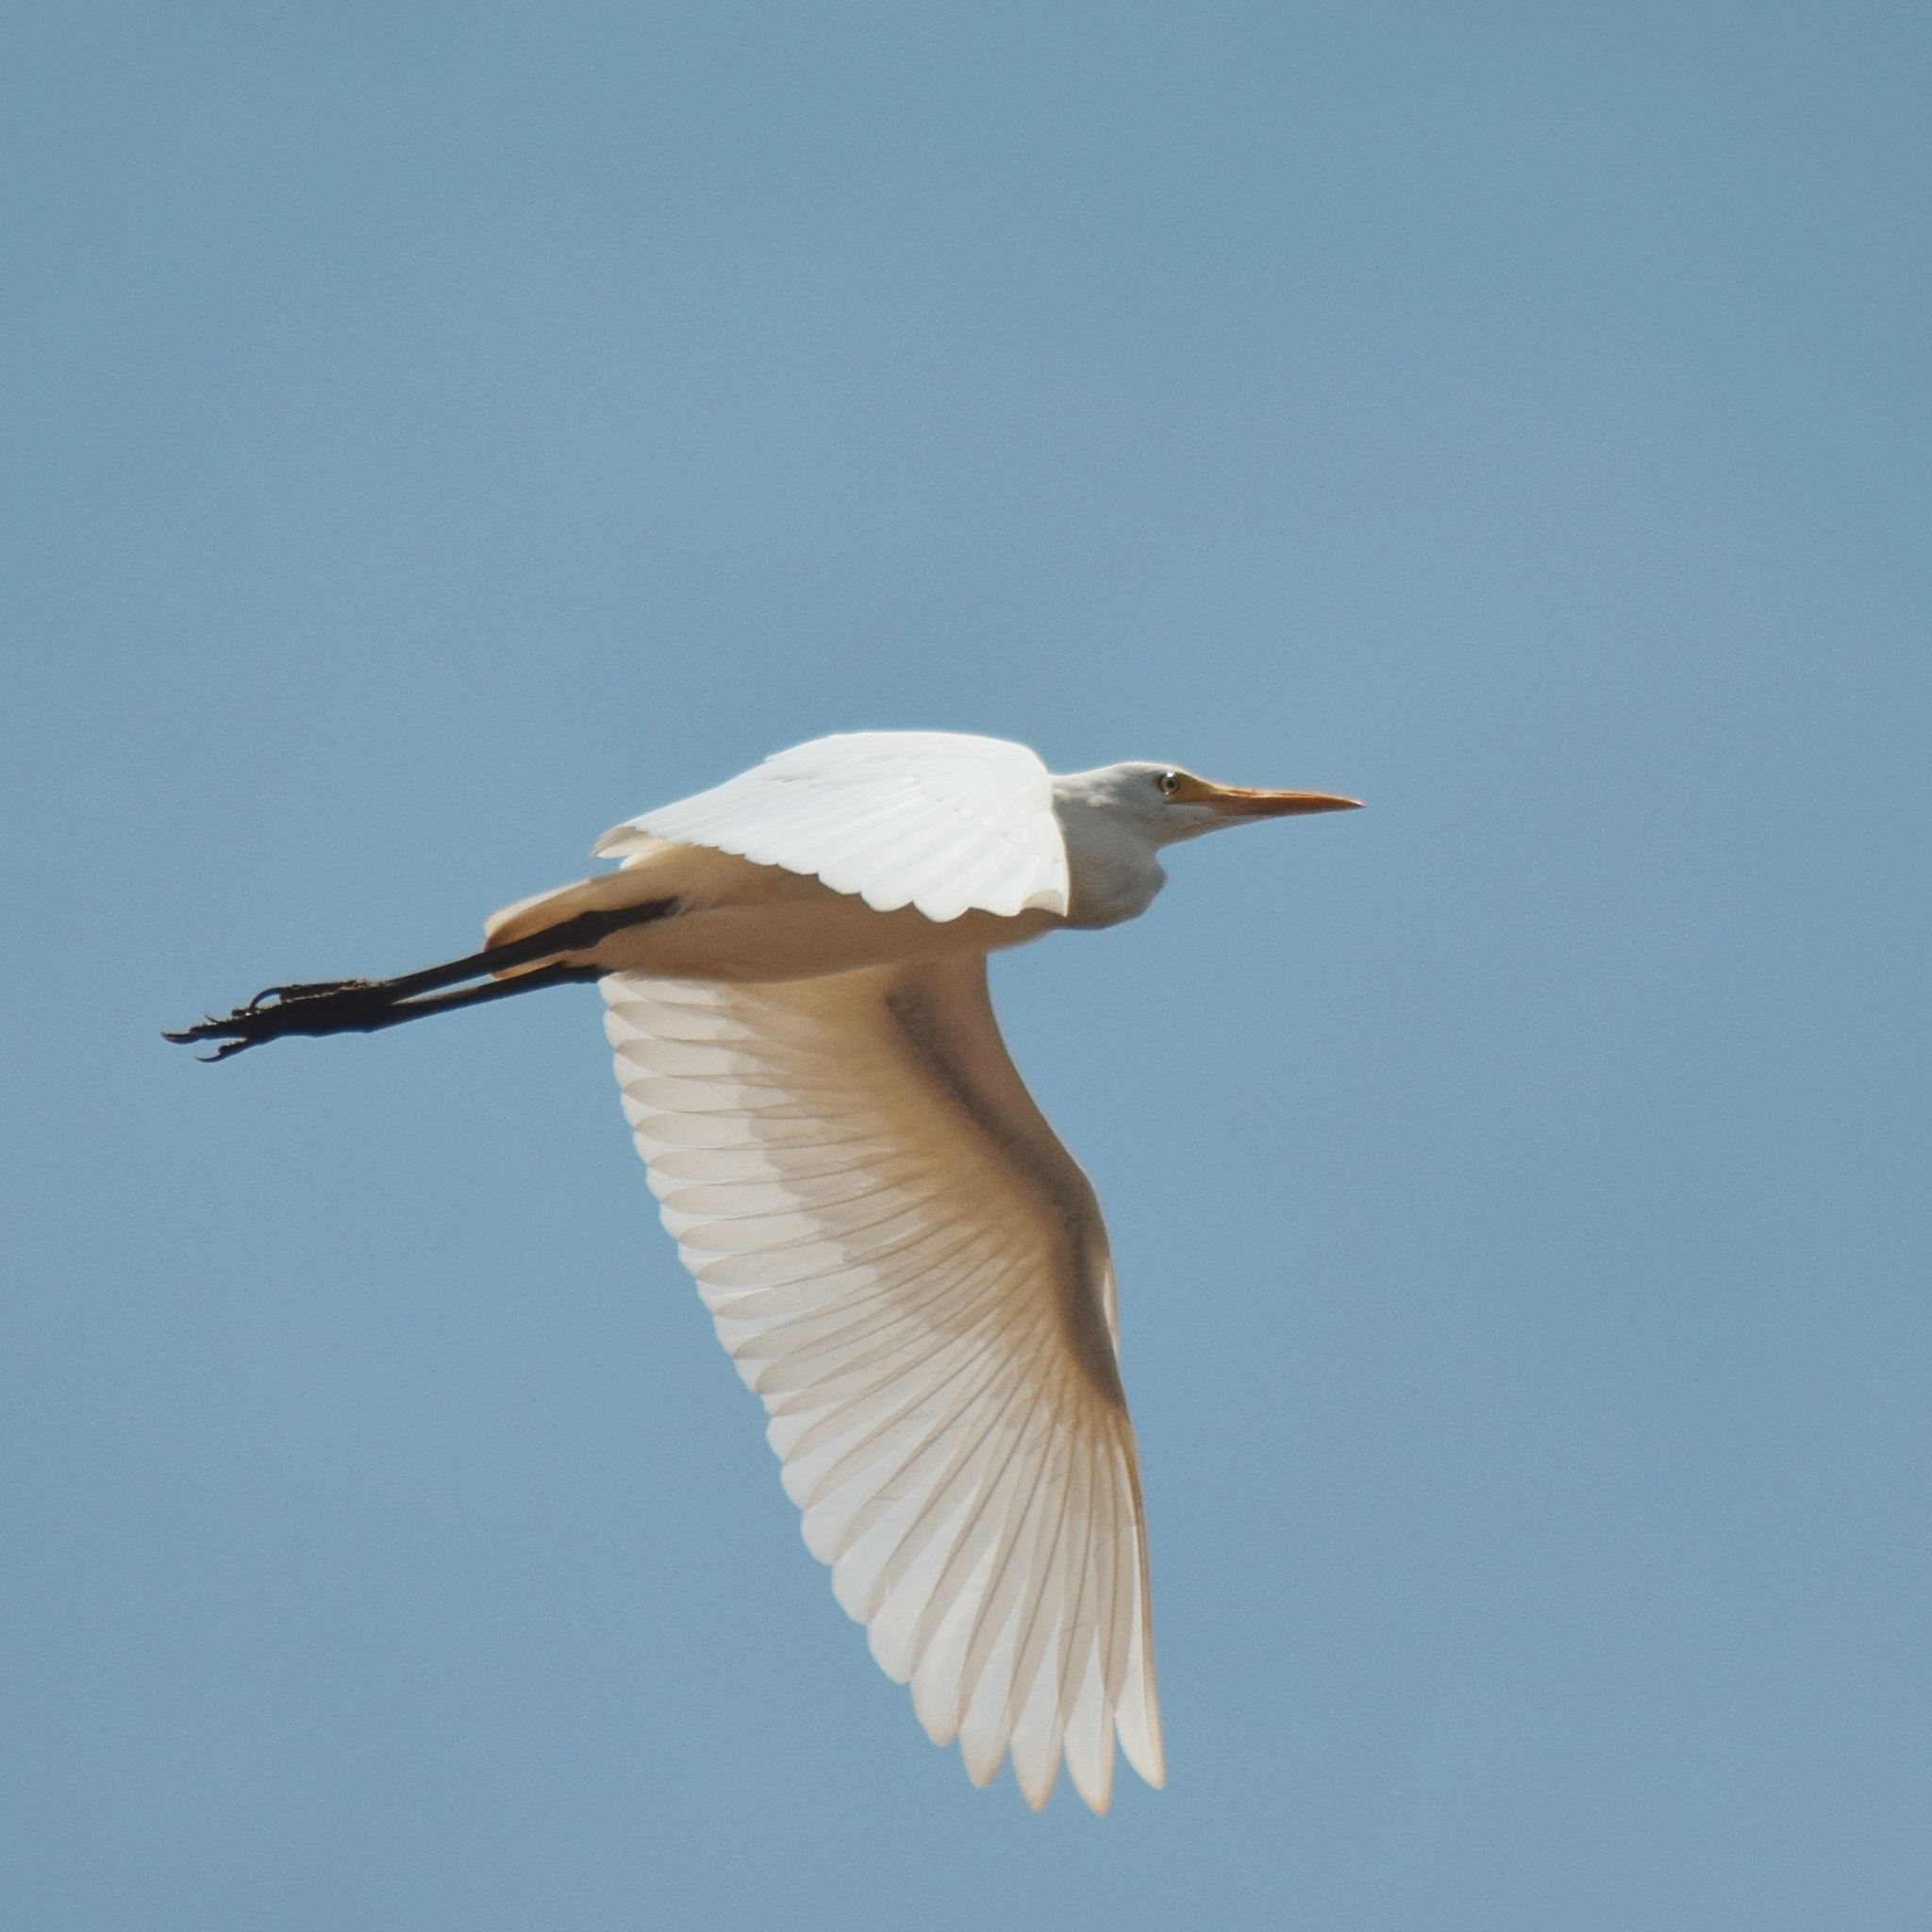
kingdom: Animalia
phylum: Chordata
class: Aves
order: Pelecaniformes
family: Ardeidae
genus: Bubulcus
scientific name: Bubulcus coromandus
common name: Eastern cattle egret
